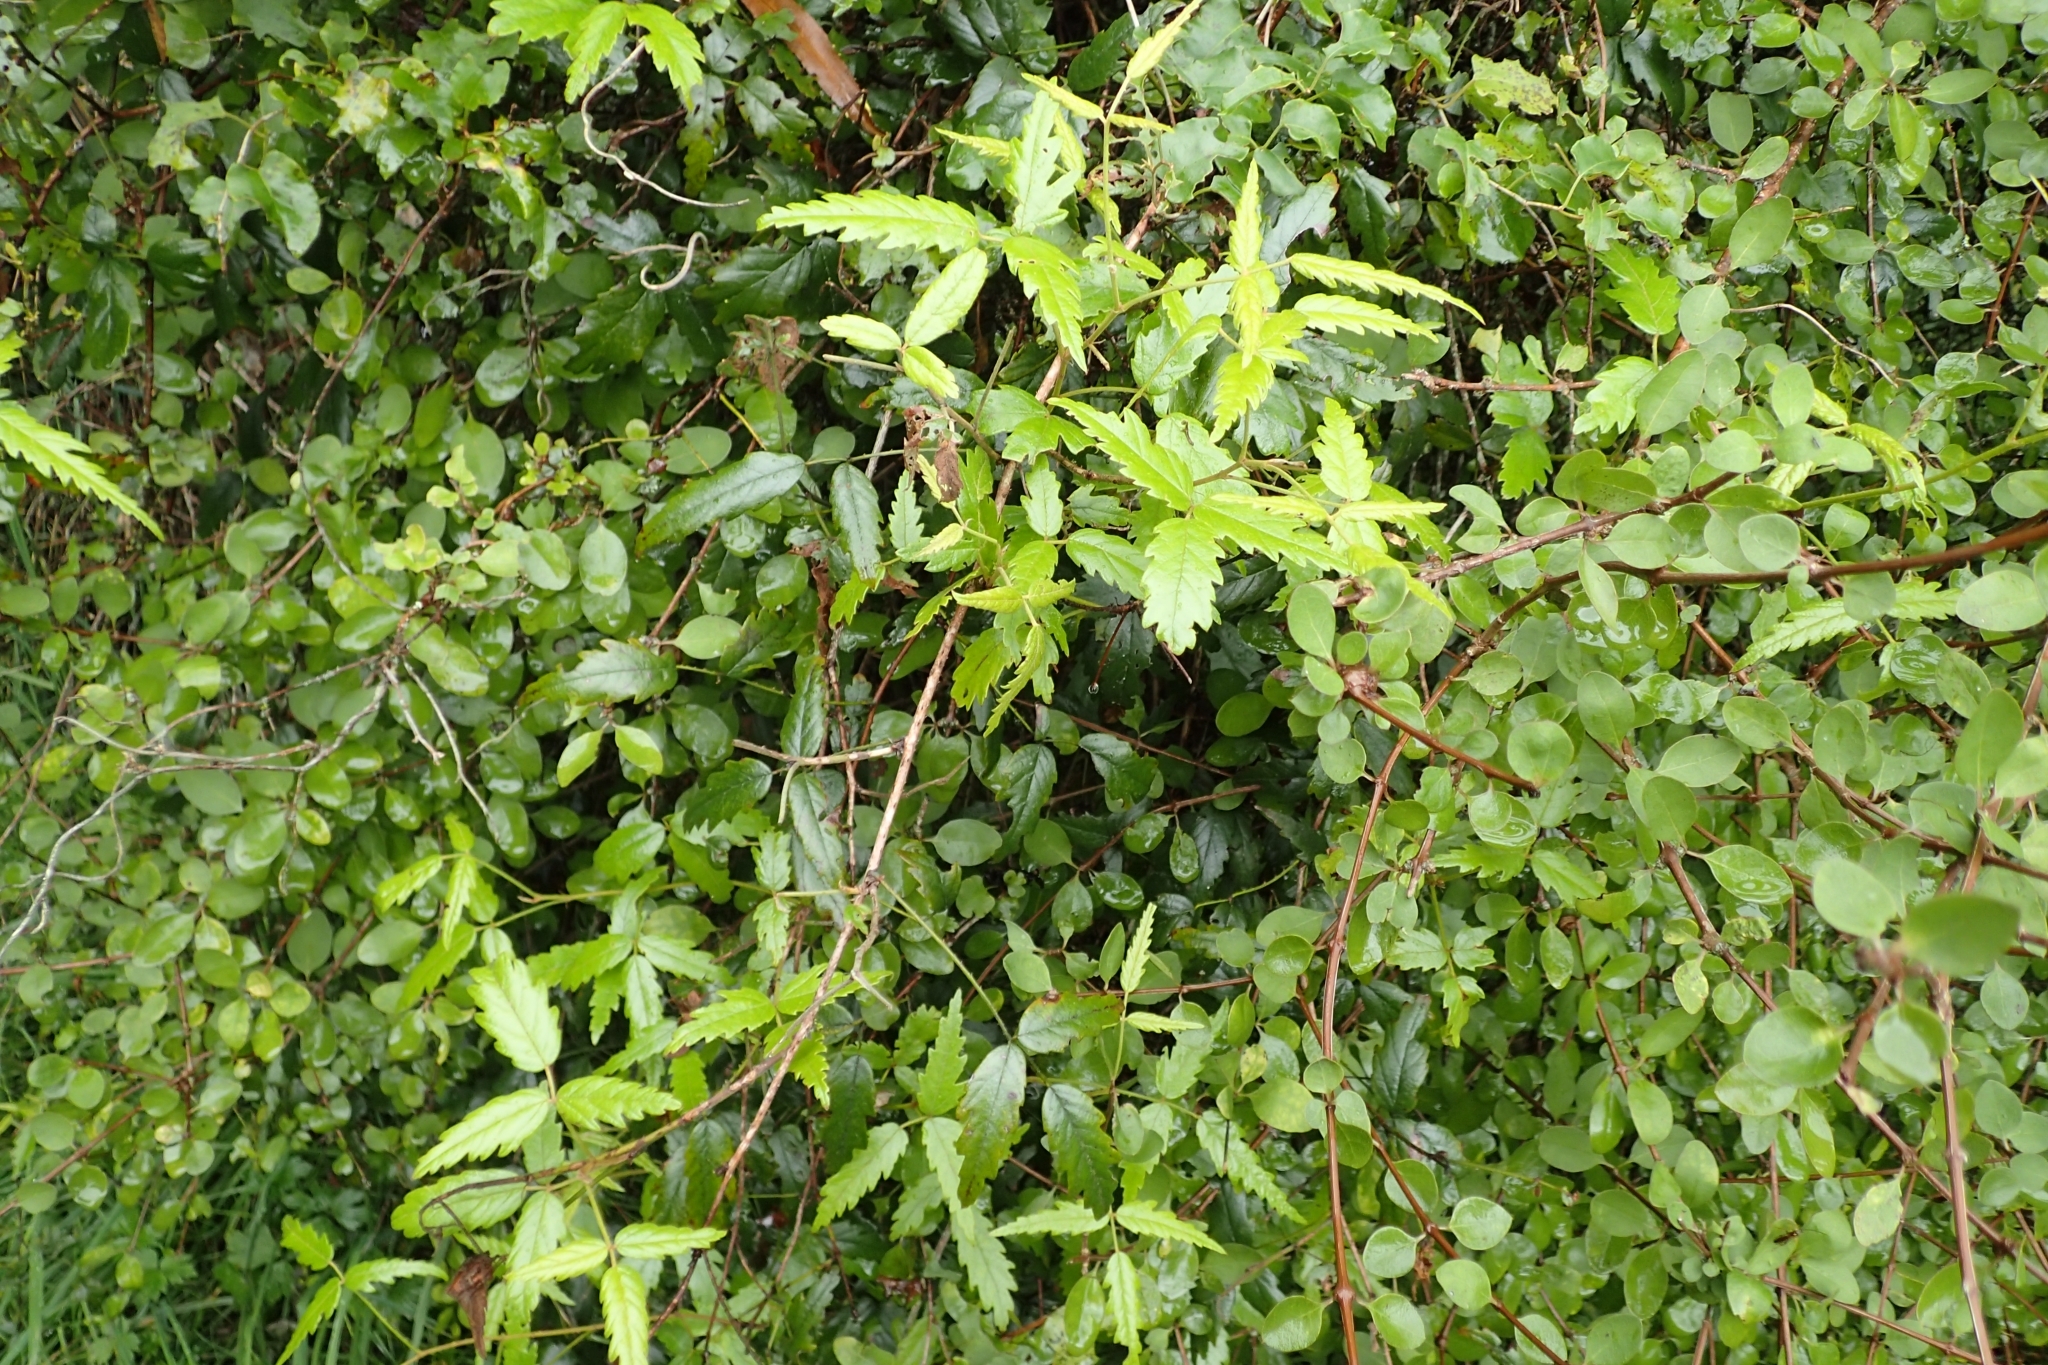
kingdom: Plantae
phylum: Tracheophyta
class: Magnoliopsida
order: Rosales
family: Rosaceae
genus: Rubus
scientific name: Rubus schmidelioides
